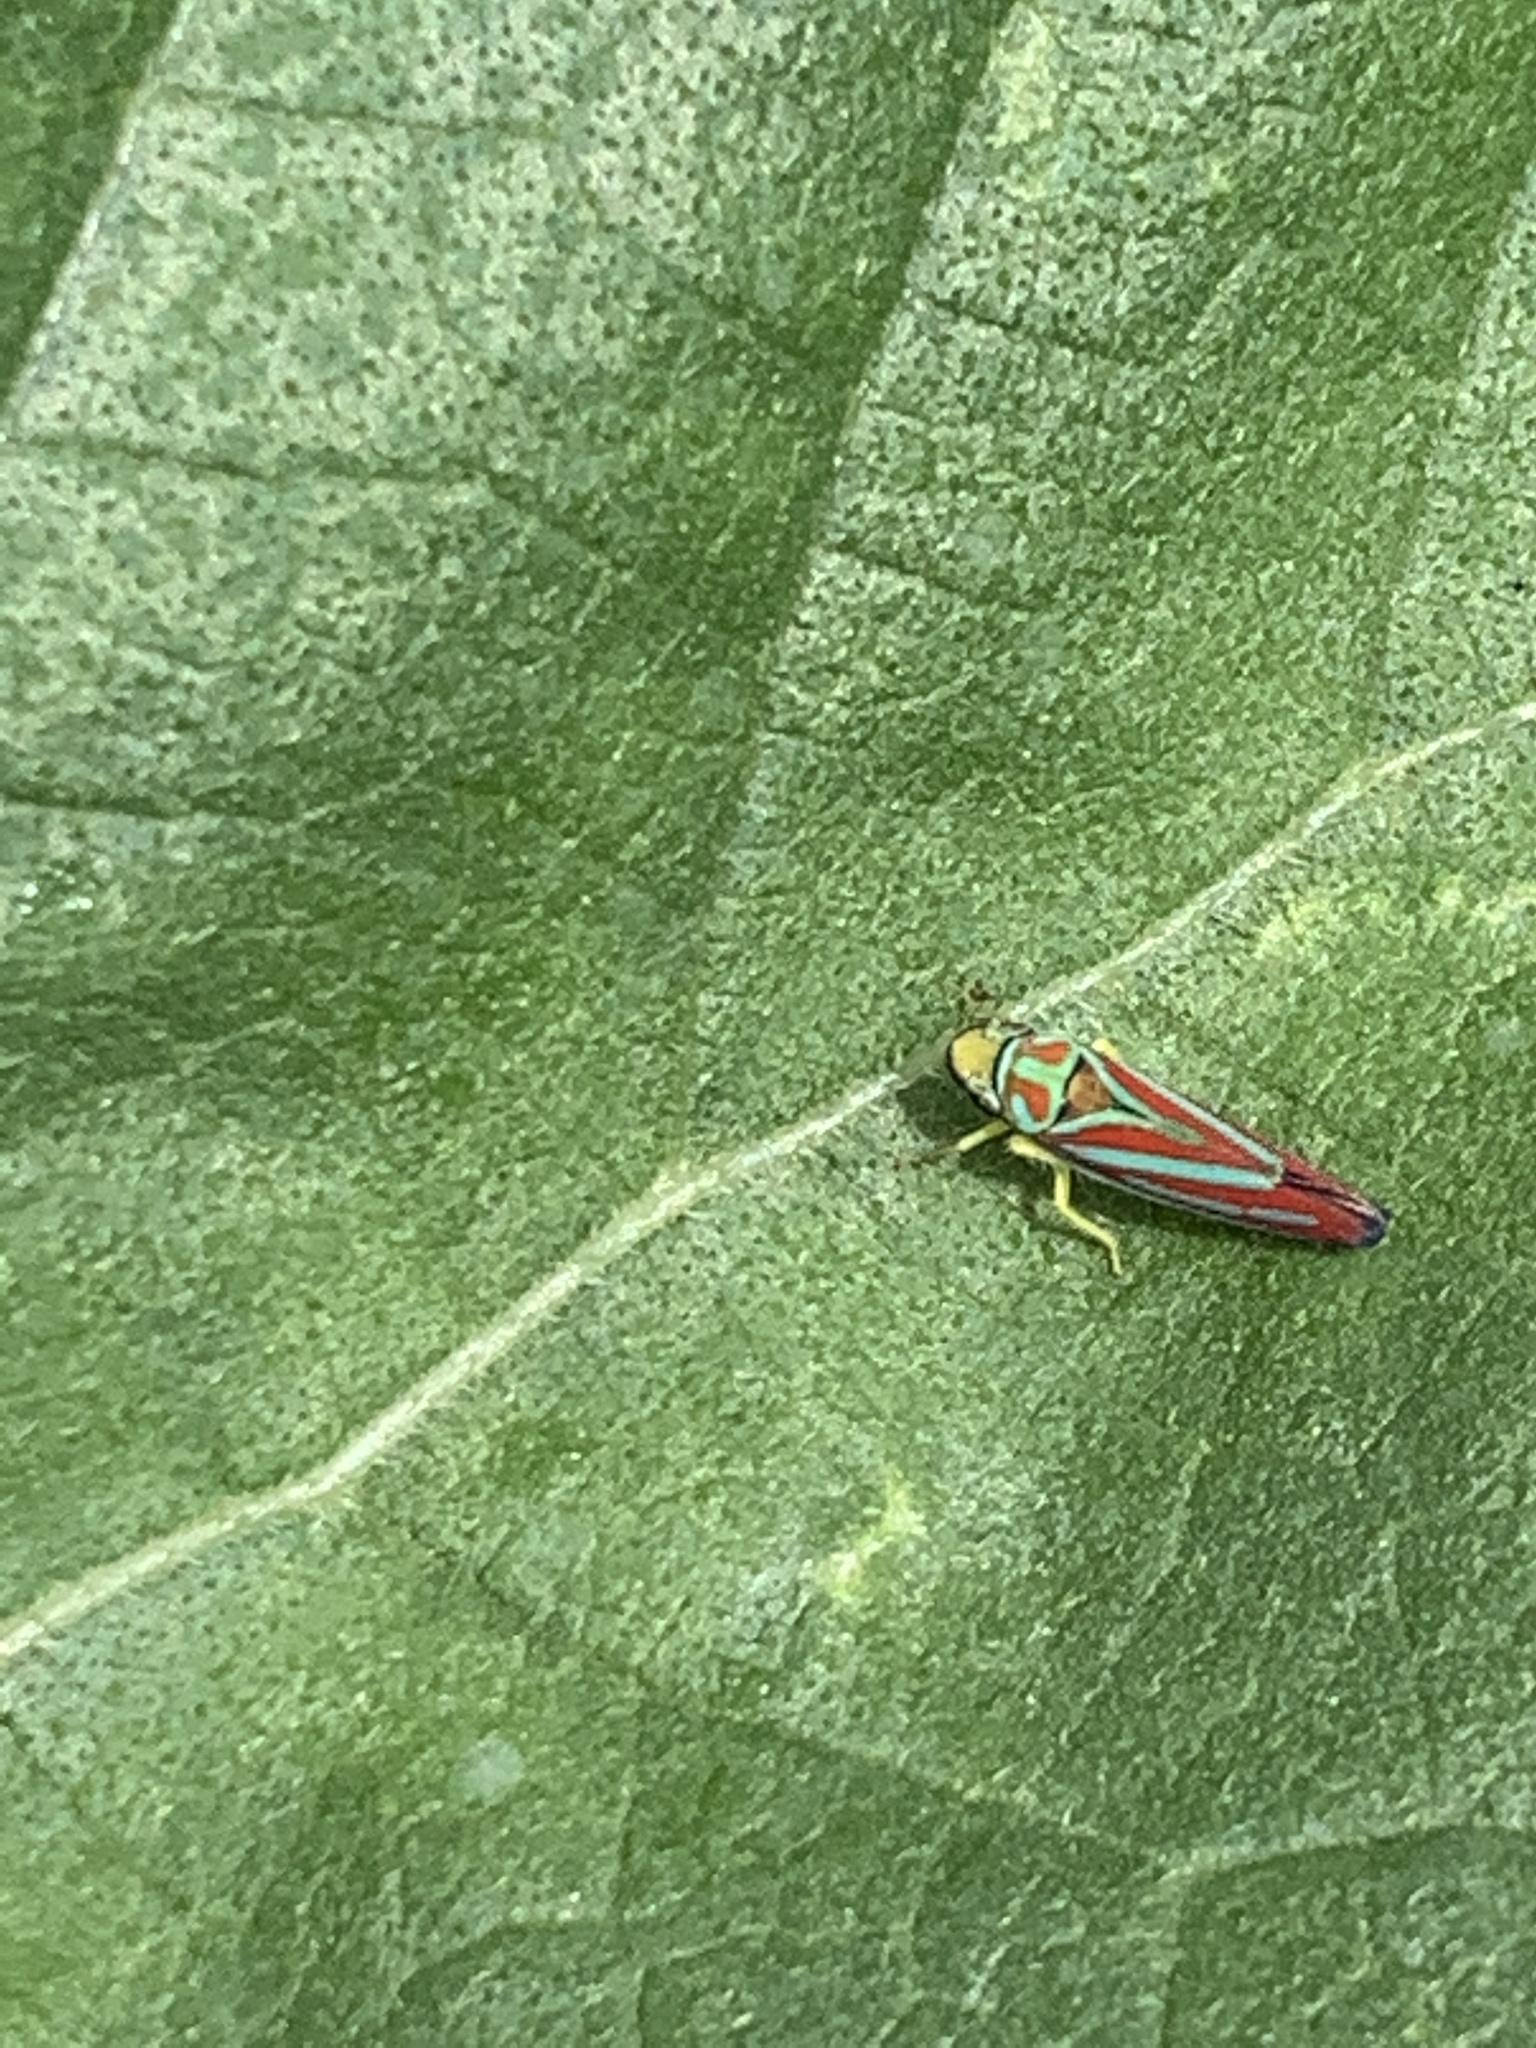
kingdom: Animalia
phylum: Arthropoda
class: Insecta
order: Hemiptera
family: Cicadellidae
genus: Graphocephala
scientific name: Graphocephala coccinea
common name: Candy-striped leafhopper
